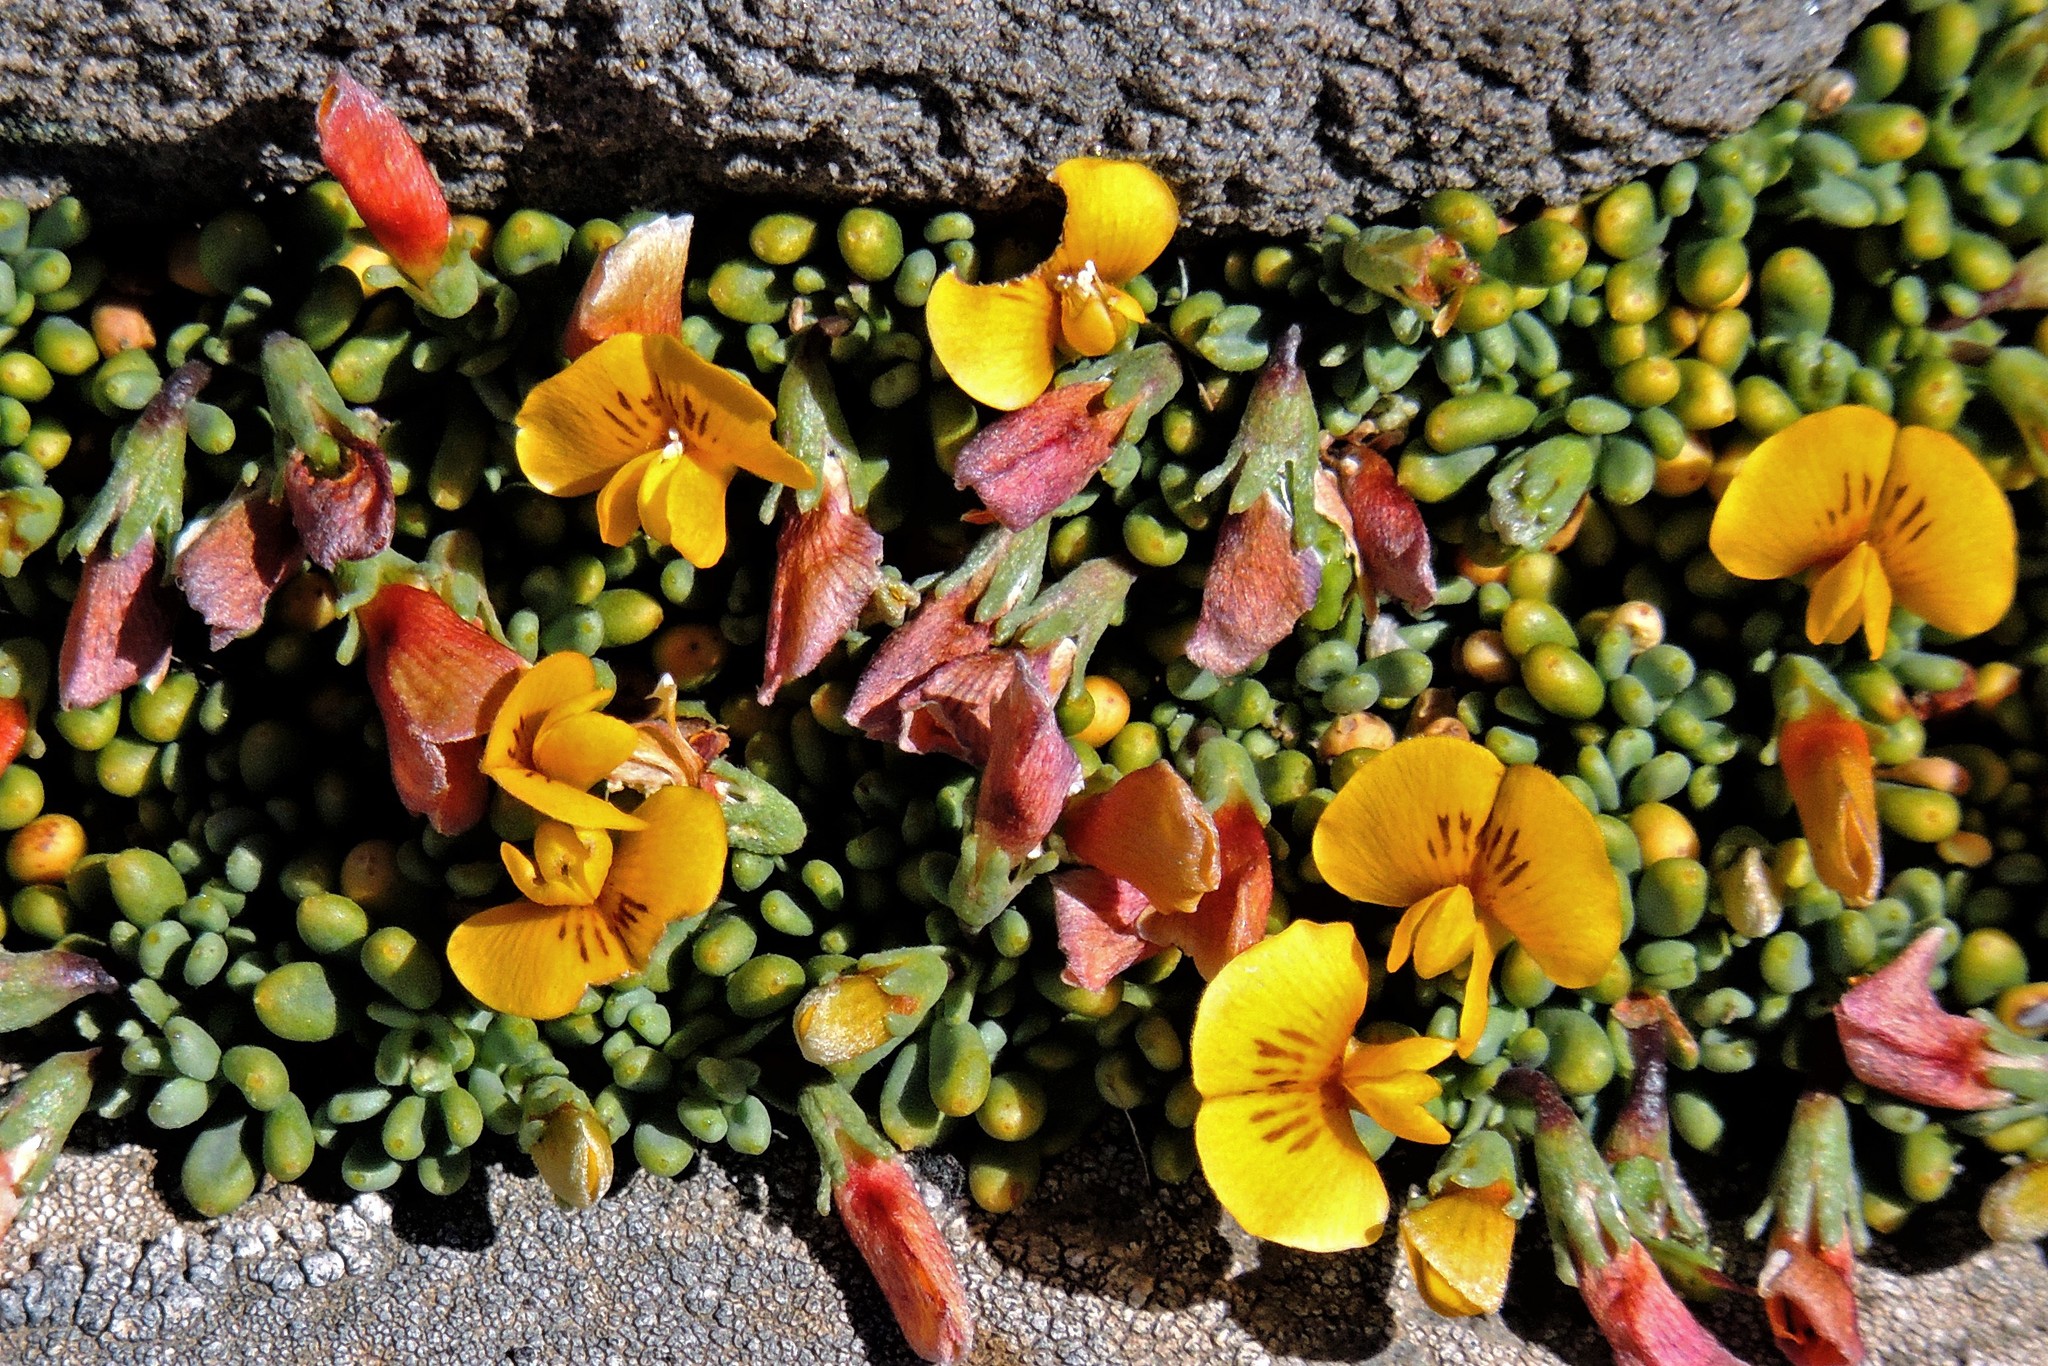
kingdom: Plantae
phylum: Tracheophyta
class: Magnoliopsida
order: Fabales
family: Fabaceae
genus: Adesmia
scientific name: Adesmia salicornioides
